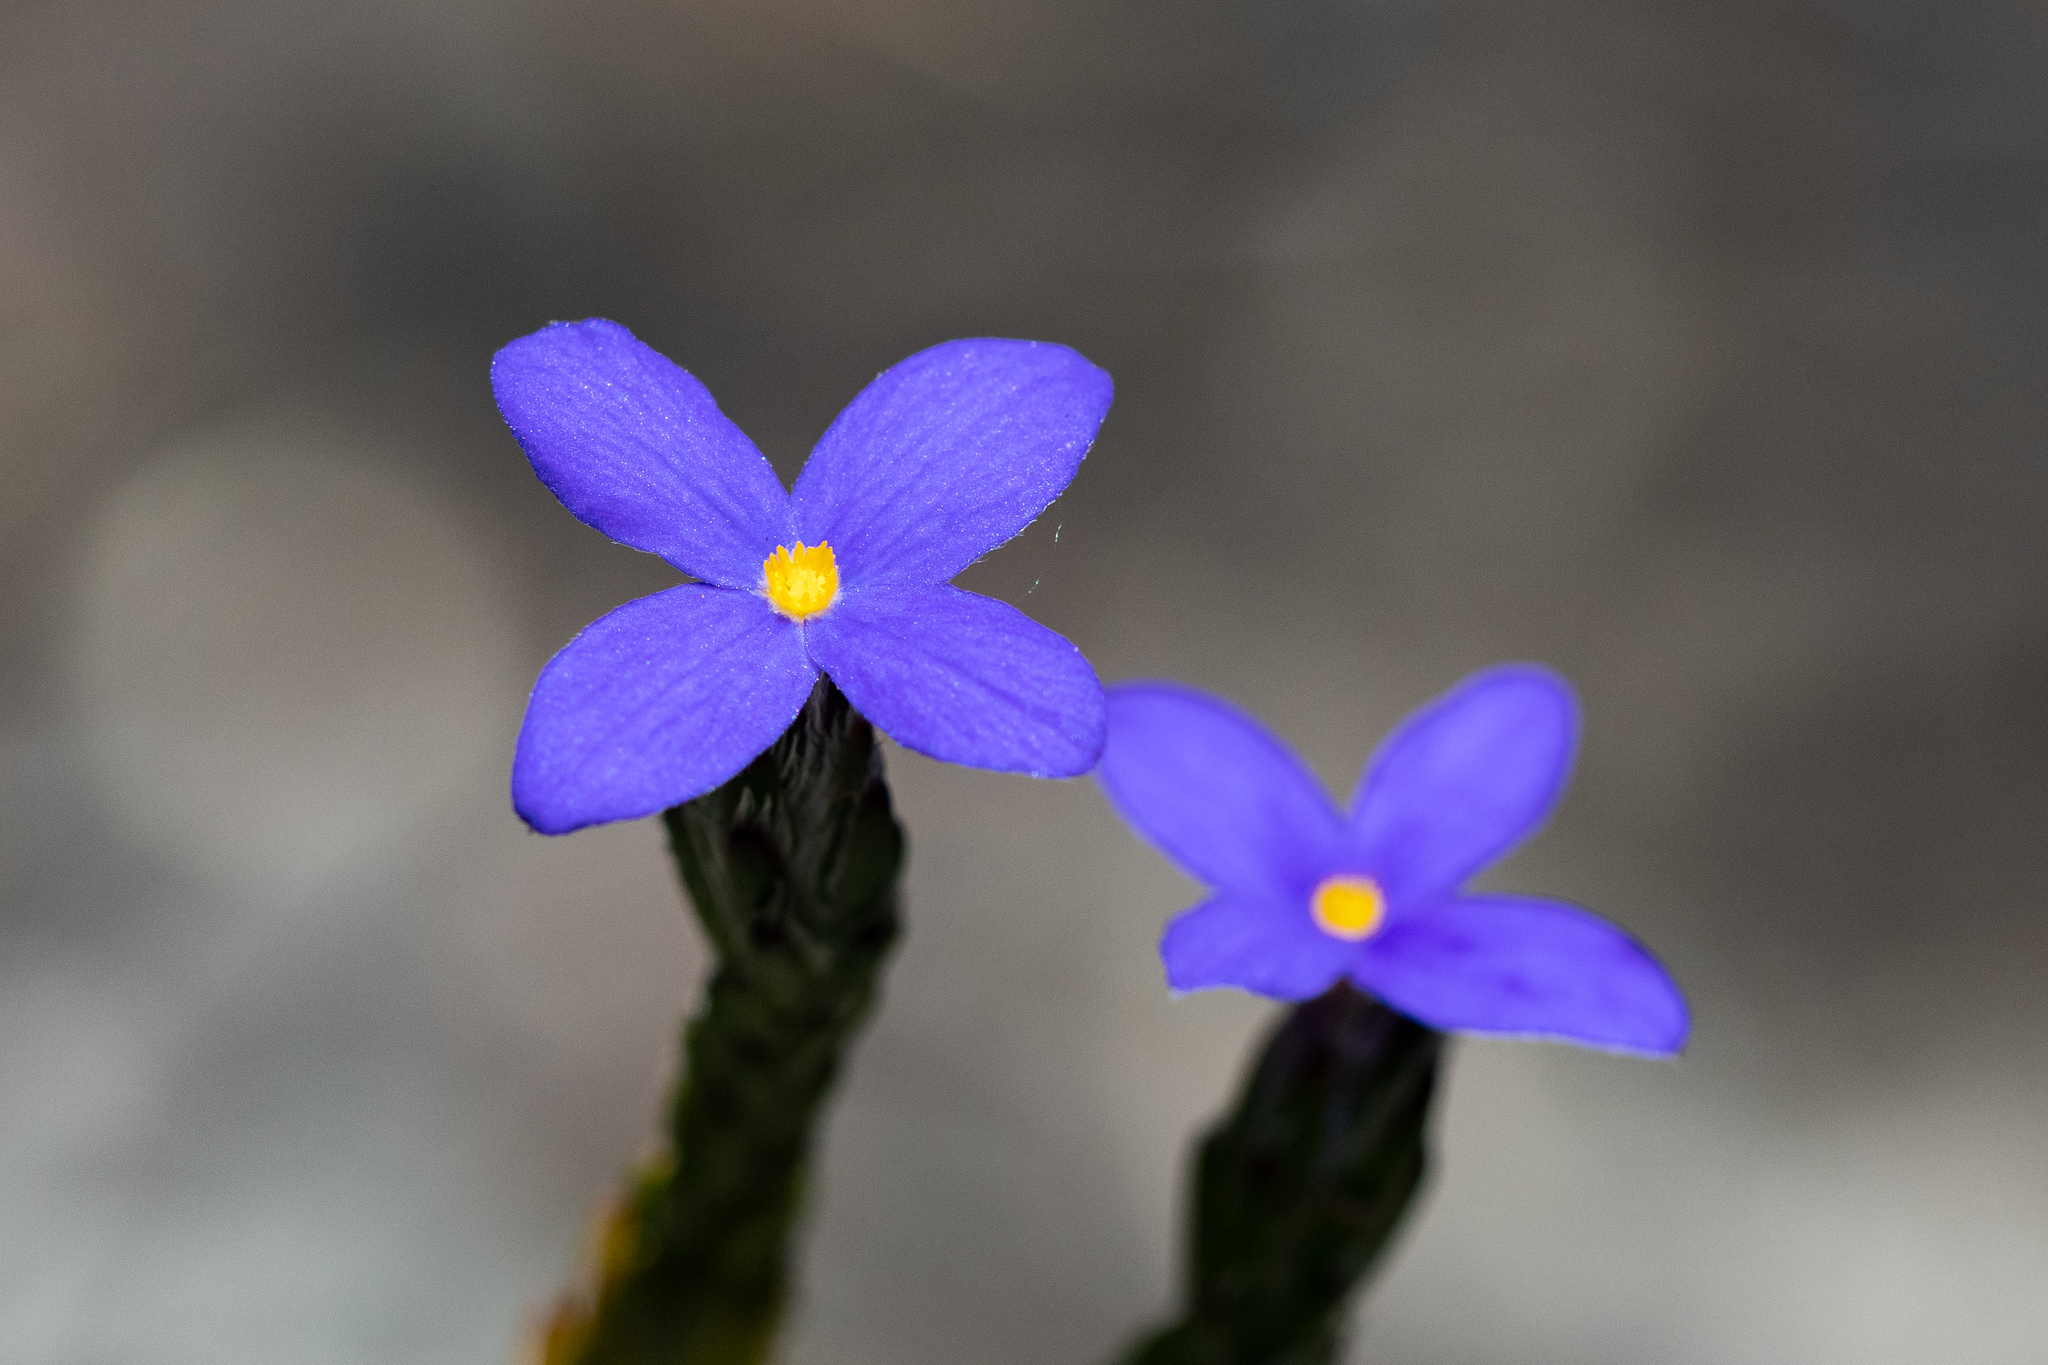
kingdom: Plantae
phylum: Tracheophyta
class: Magnoliopsida
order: Malvales
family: Thymelaeaceae
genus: Gnidia
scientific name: Gnidia penicillata
